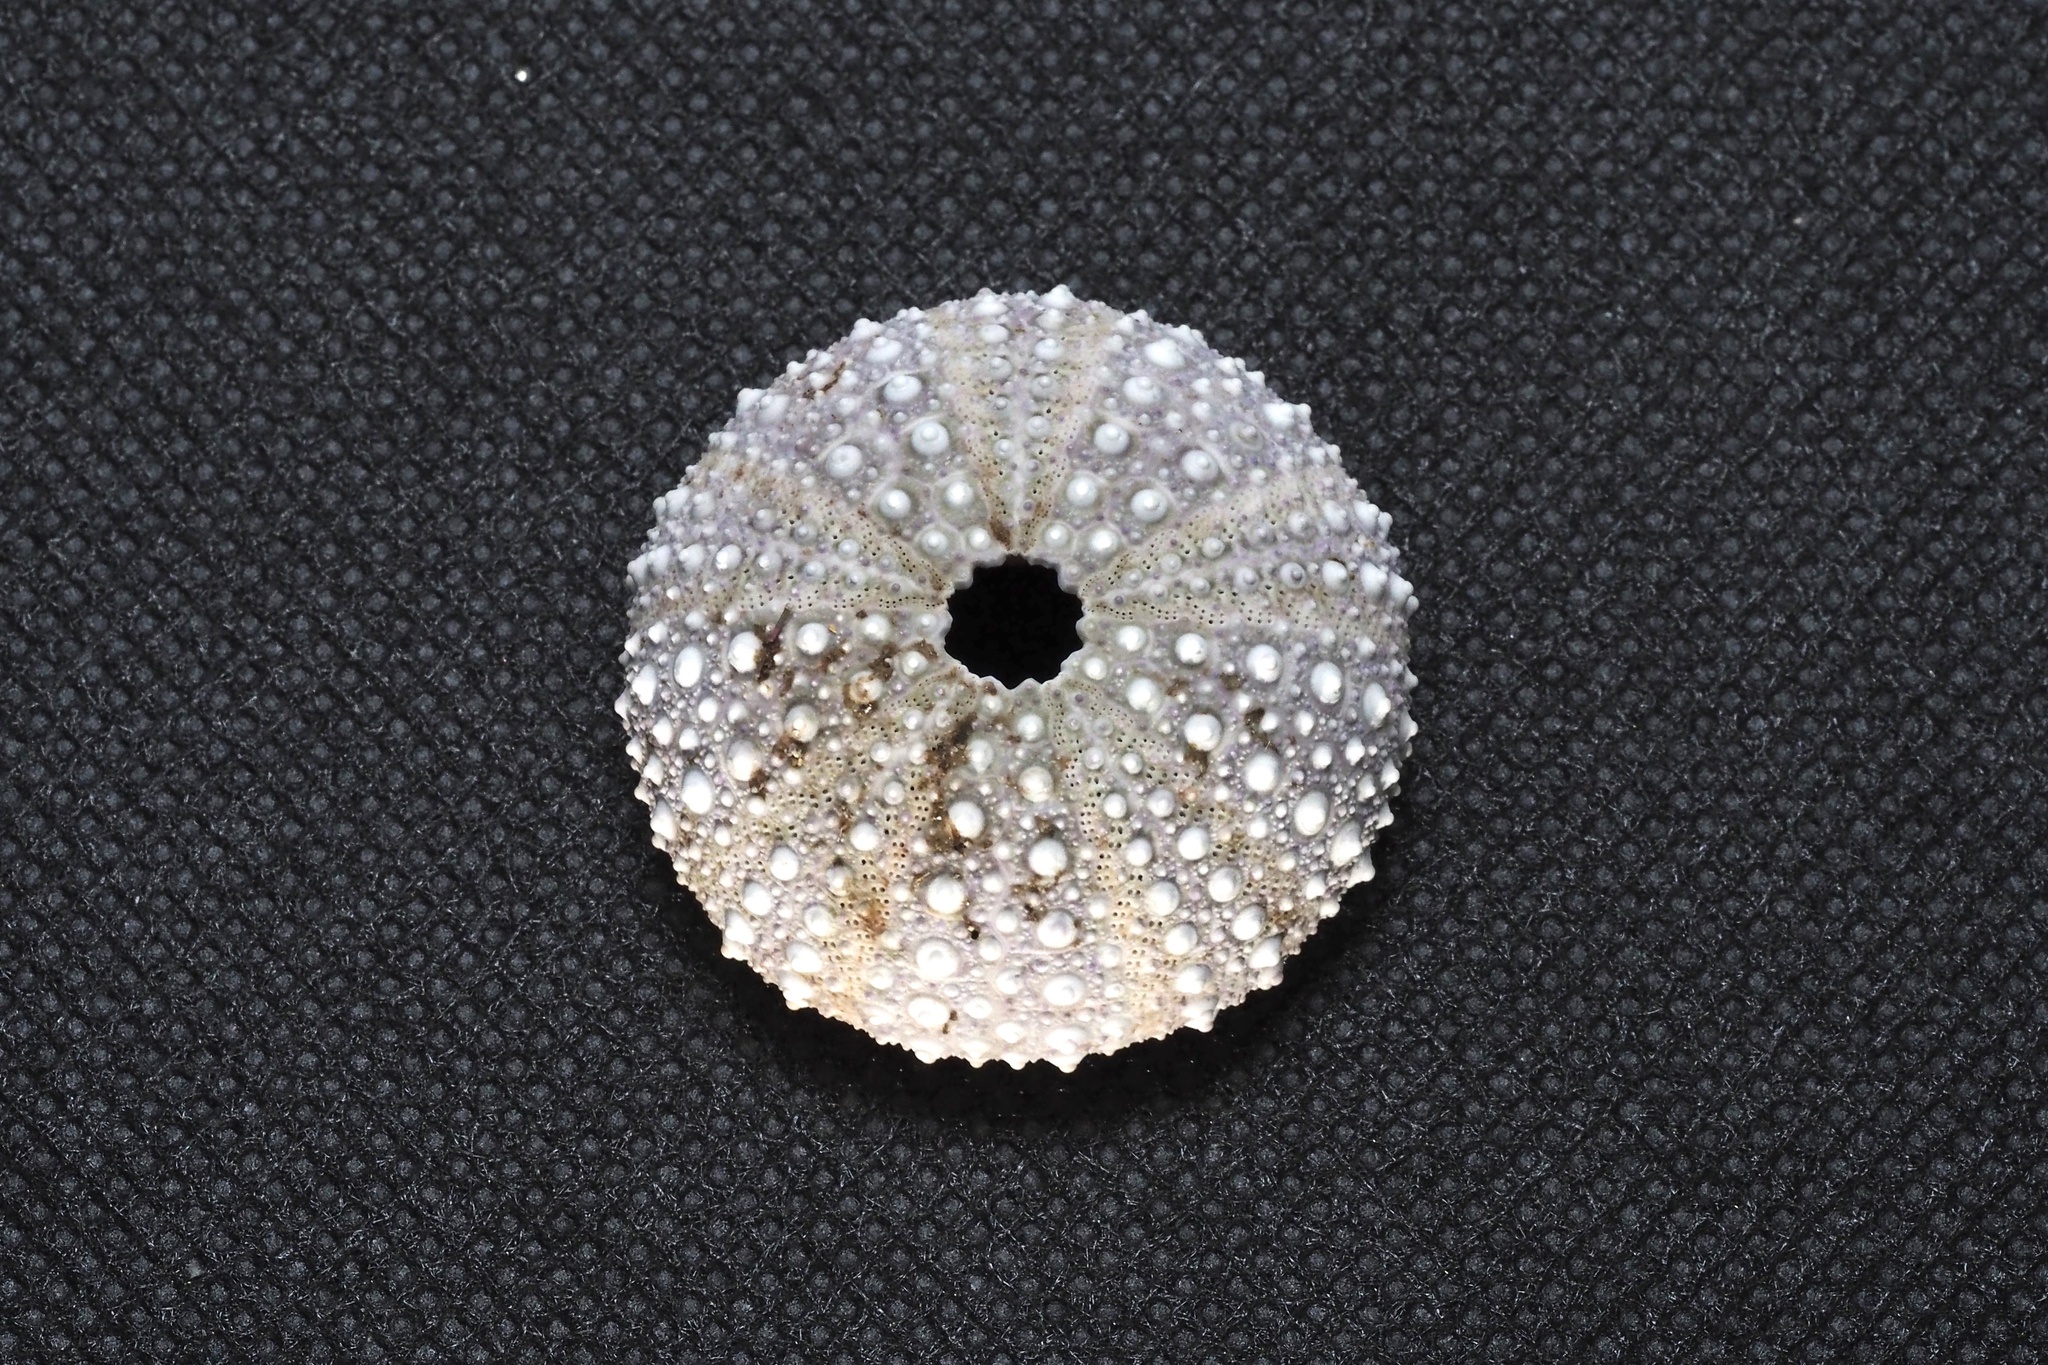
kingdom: Animalia
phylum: Echinodermata
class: Echinoidea
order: Camarodonta
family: Echinometridae
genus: Heliocidaris
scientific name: Heliocidaris crassispina
